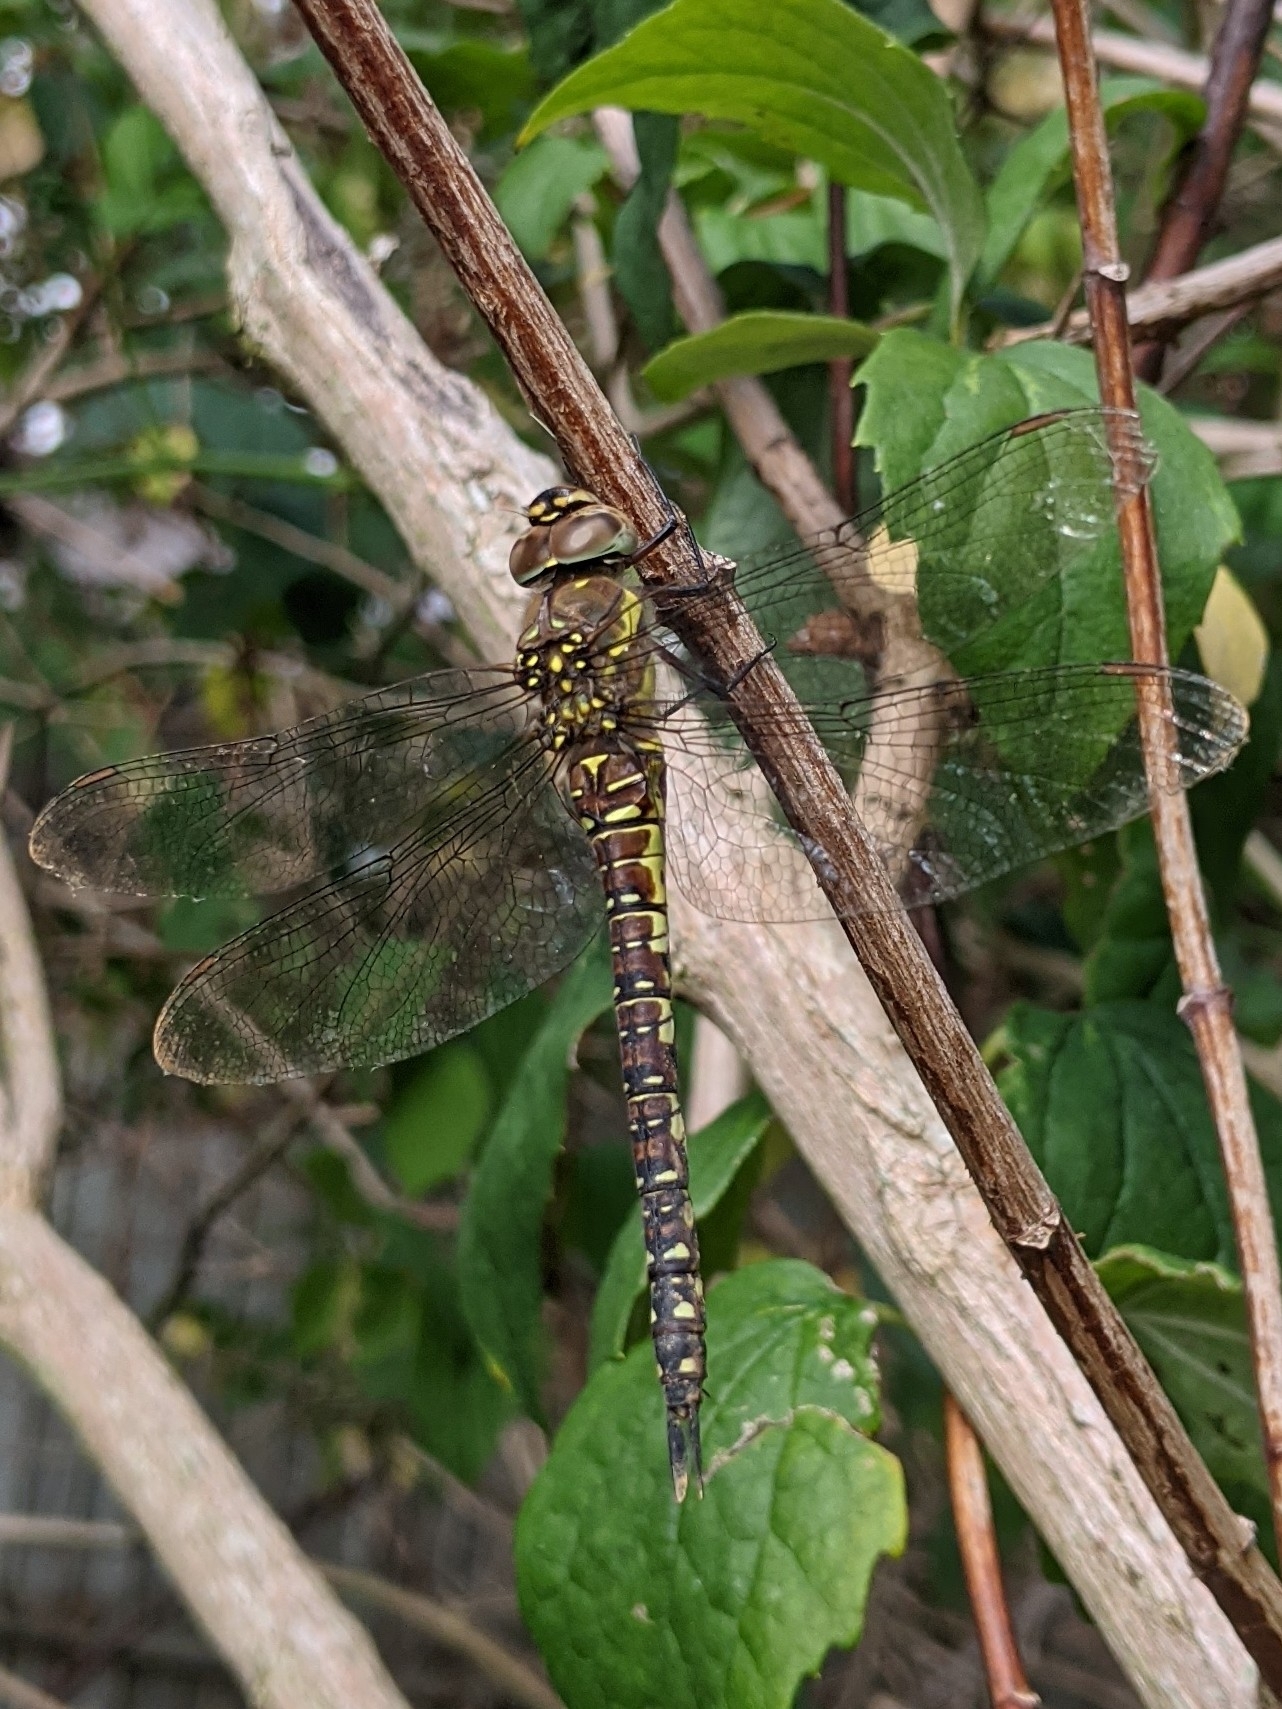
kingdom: Animalia
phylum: Arthropoda
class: Insecta
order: Odonata
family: Aeshnidae
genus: Aeshna
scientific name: Aeshna mixta
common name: Migrant hawker
